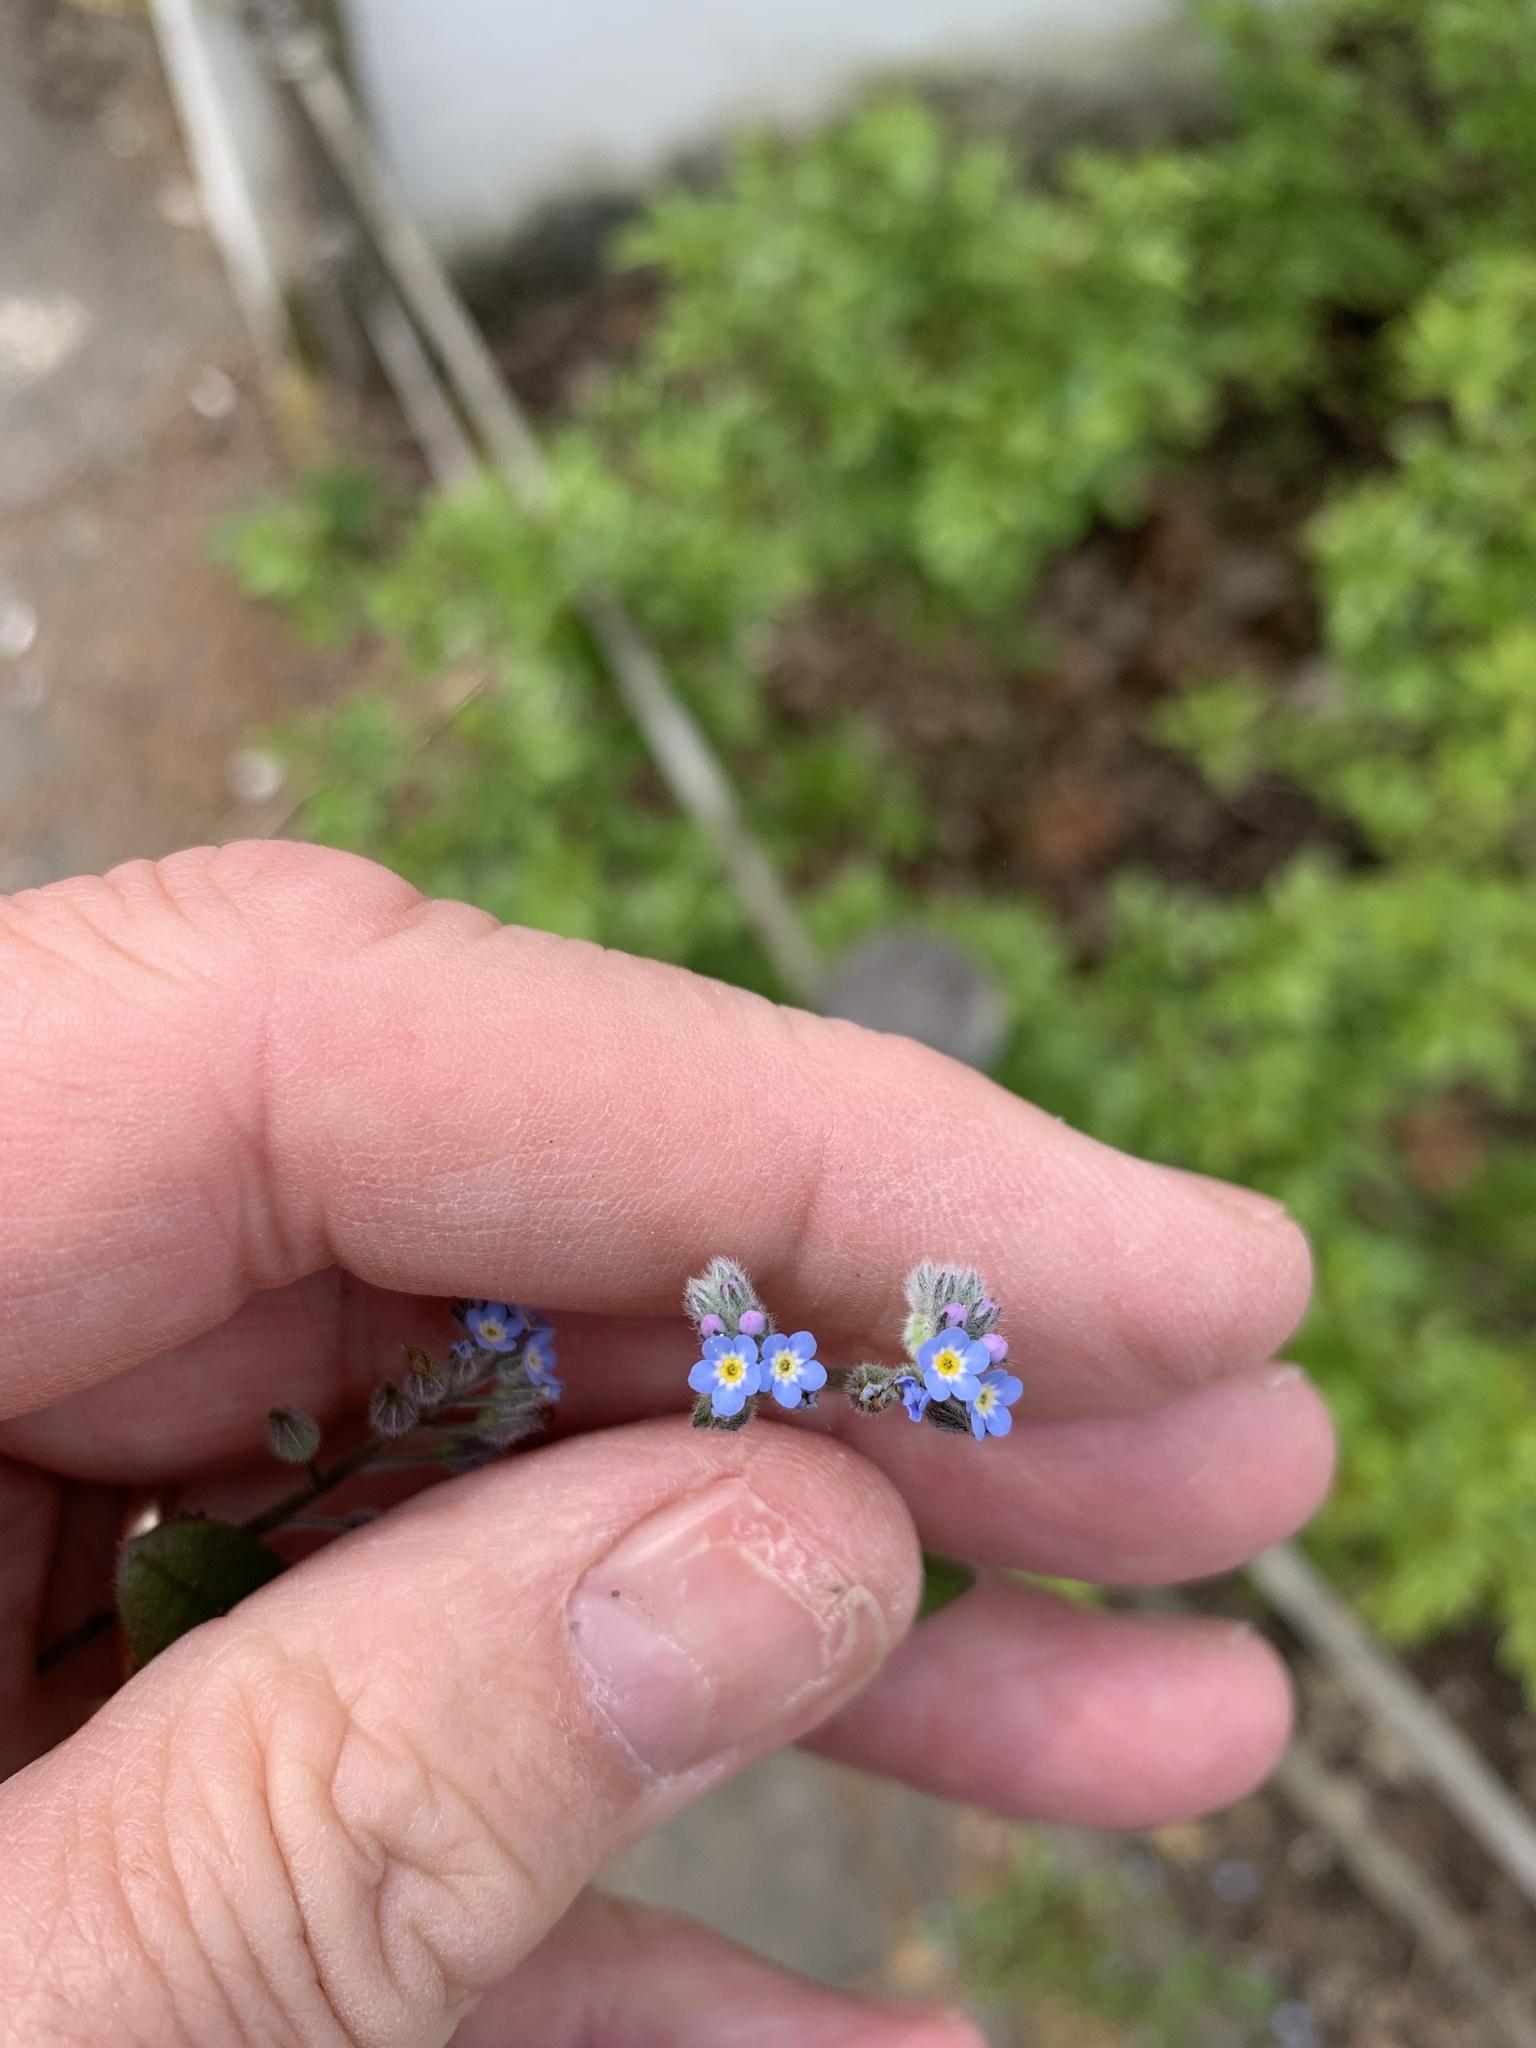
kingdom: Plantae
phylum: Tracheophyta
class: Magnoliopsida
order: Boraginales
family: Boraginaceae
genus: Myosotis
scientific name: Myosotis arvensis
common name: Field forget-me-not
